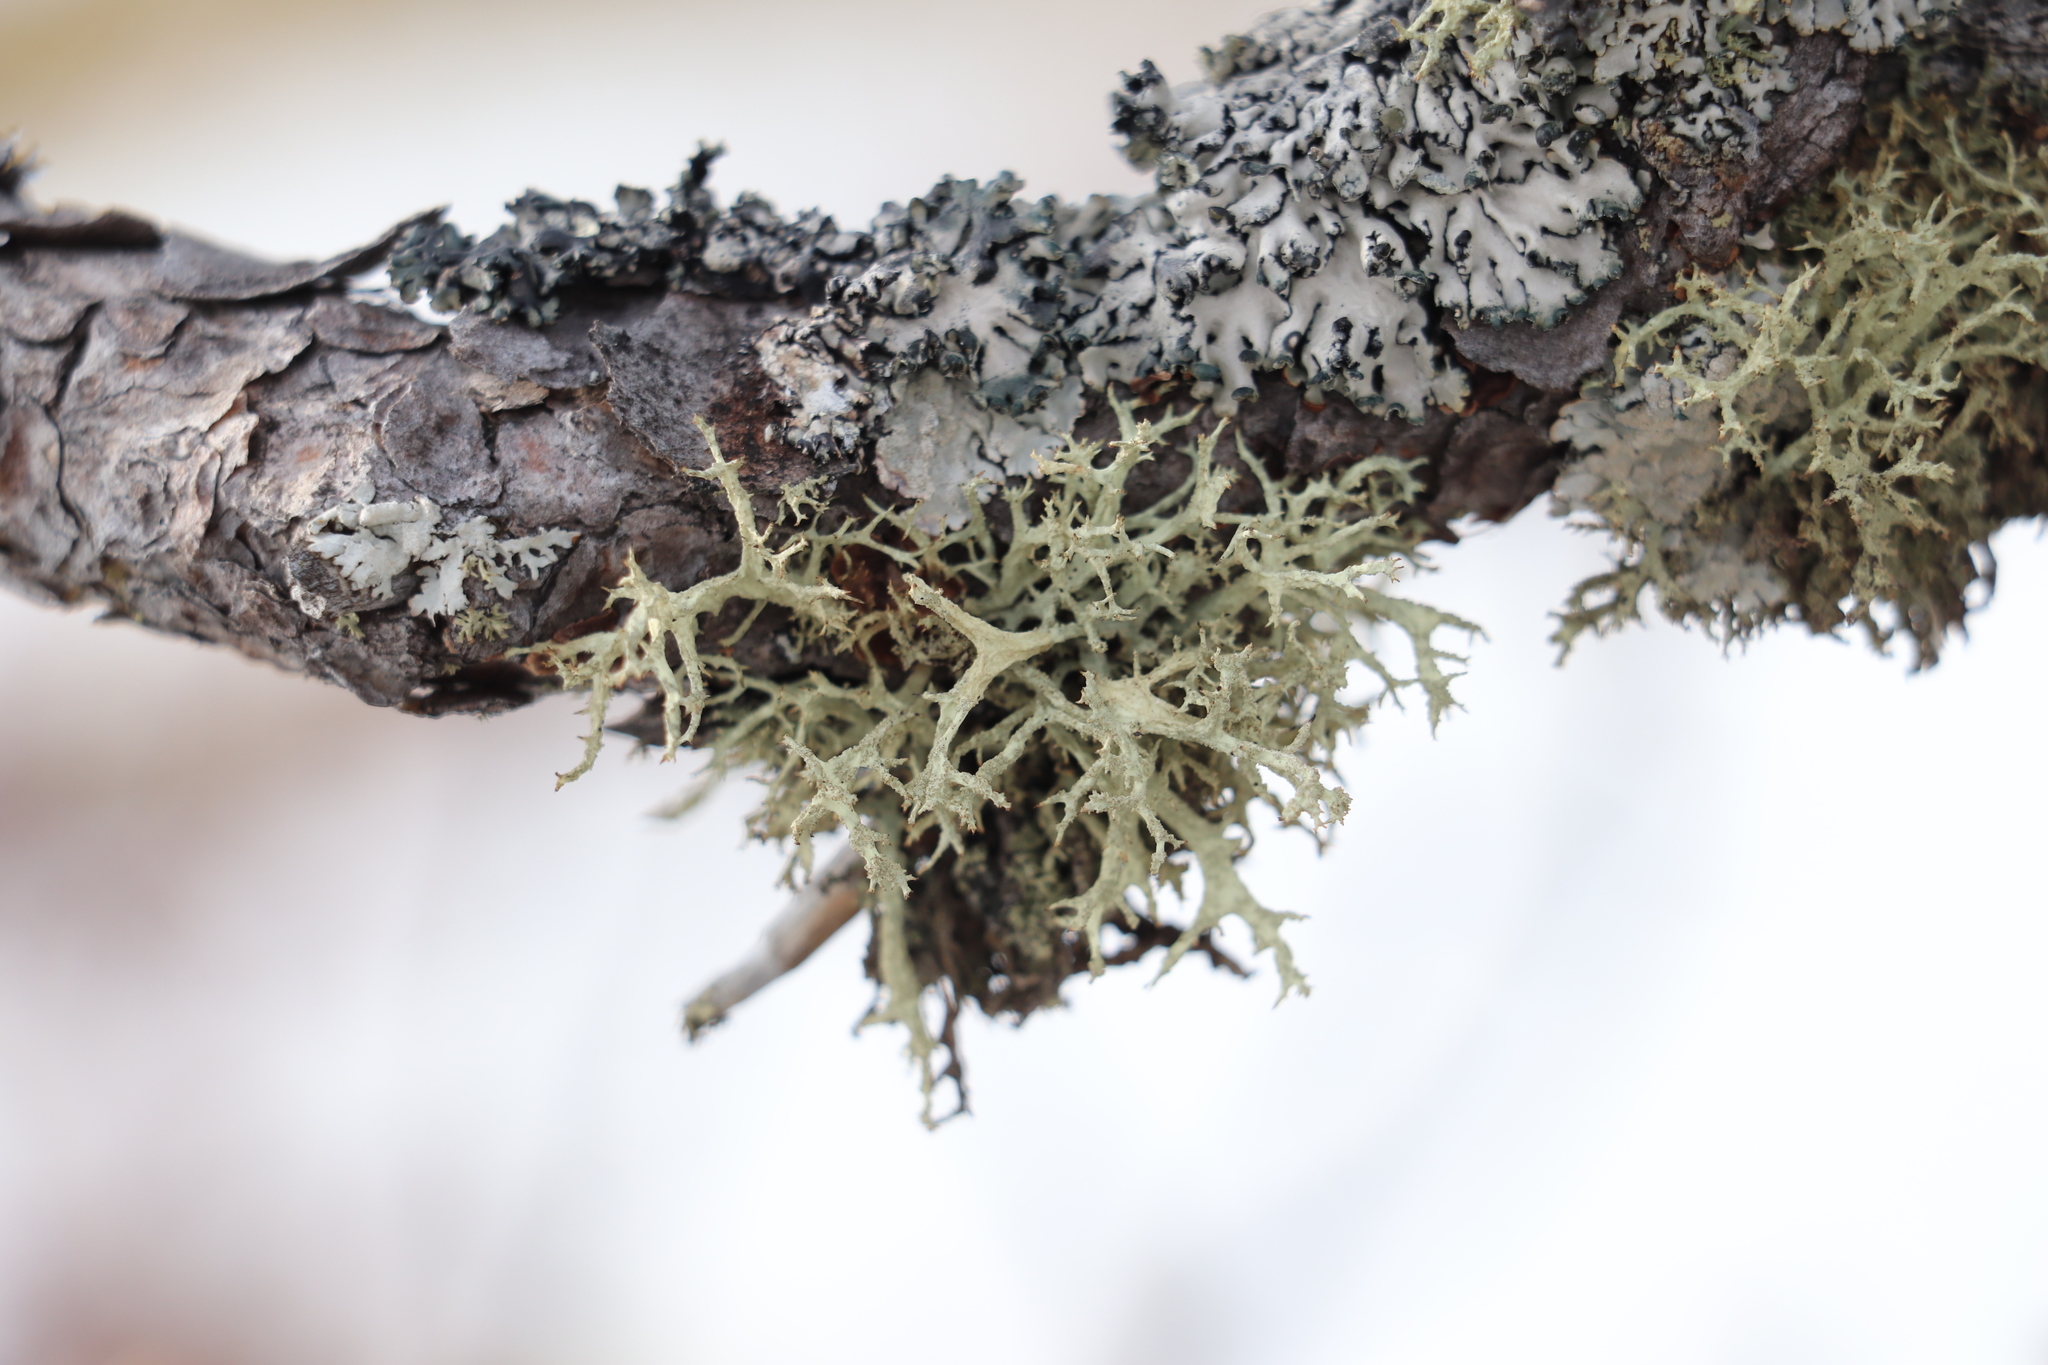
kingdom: Fungi
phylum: Ascomycota
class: Lecanoromycetes
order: Lecanorales
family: Parmeliaceae
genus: Evernia
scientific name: Evernia mesomorpha
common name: Boreal oak moss lichen
